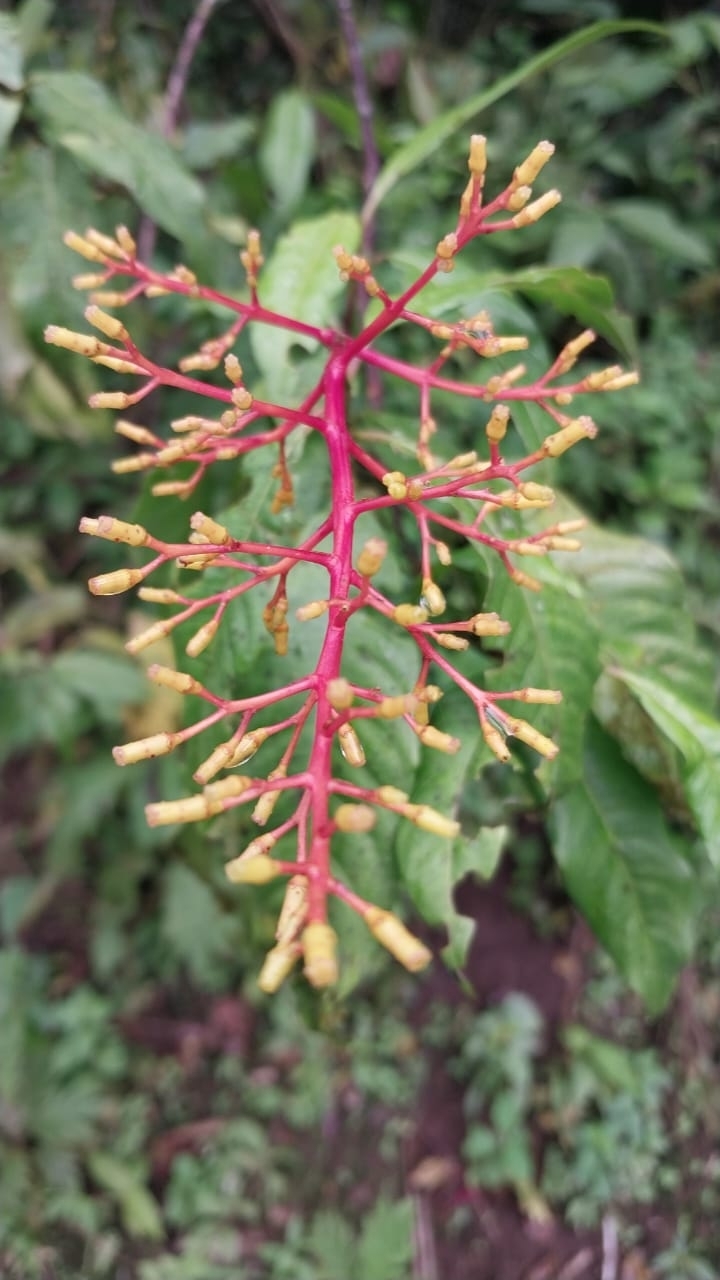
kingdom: Plantae
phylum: Tracheophyta
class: Magnoliopsida
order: Gentianales
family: Rubiaceae
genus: Palicourea
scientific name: Palicourea padifolia
